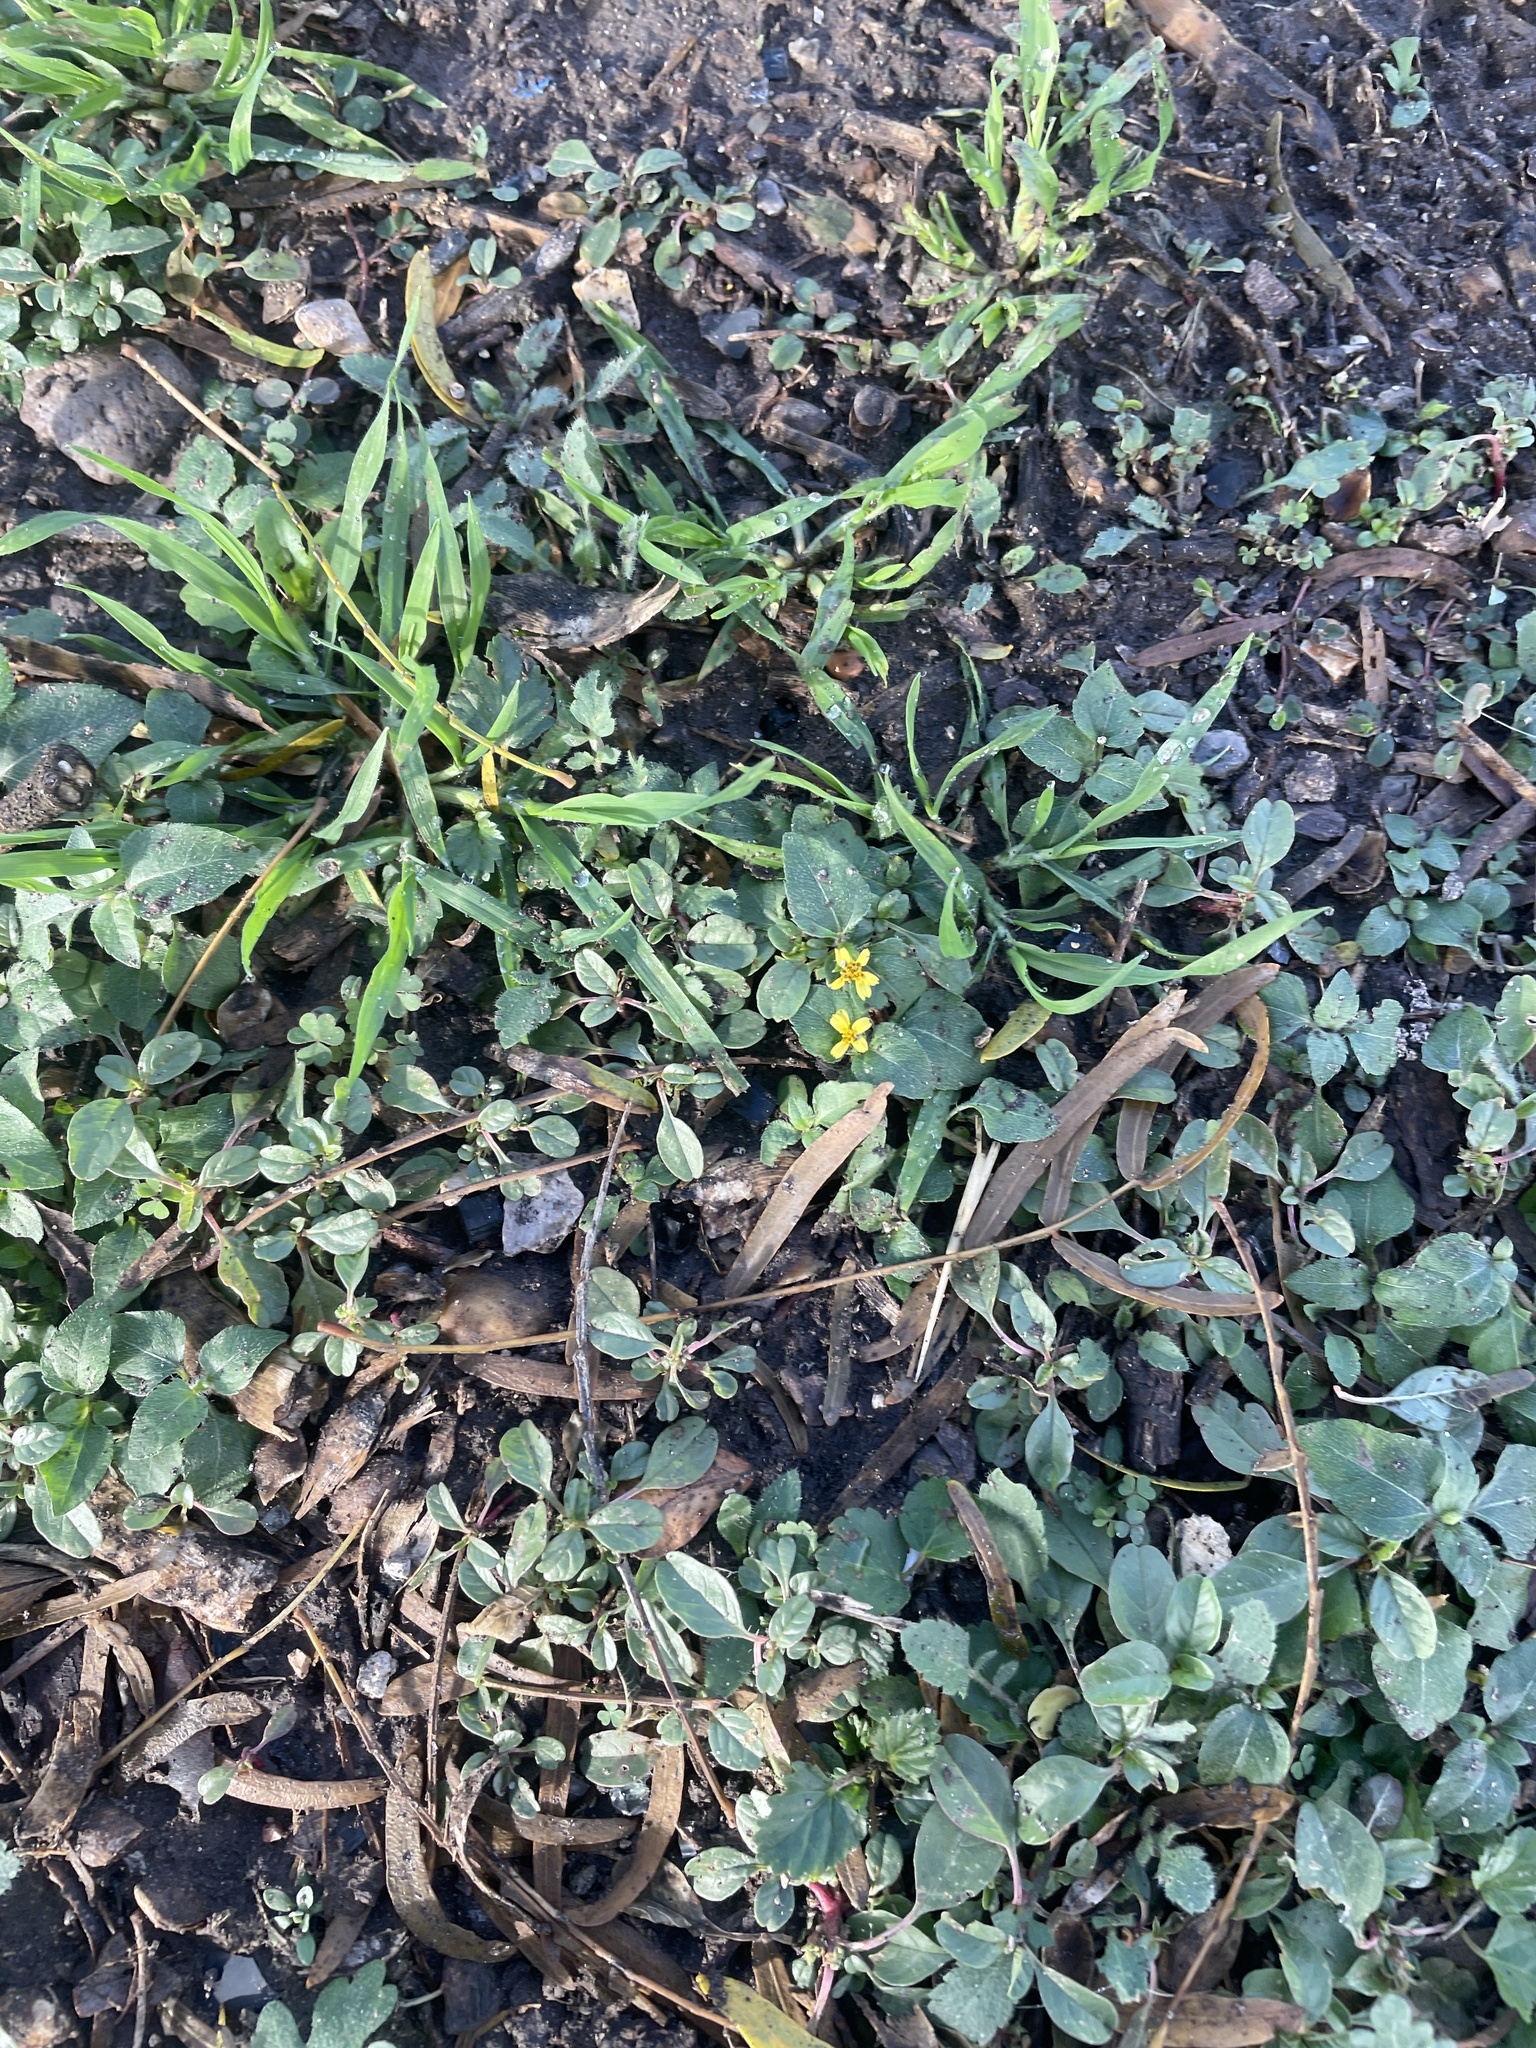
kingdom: Plantae
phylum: Tracheophyta
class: Magnoliopsida
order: Asterales
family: Asteraceae
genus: Calyptocarpus
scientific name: Calyptocarpus vialis
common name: Straggler daisy
